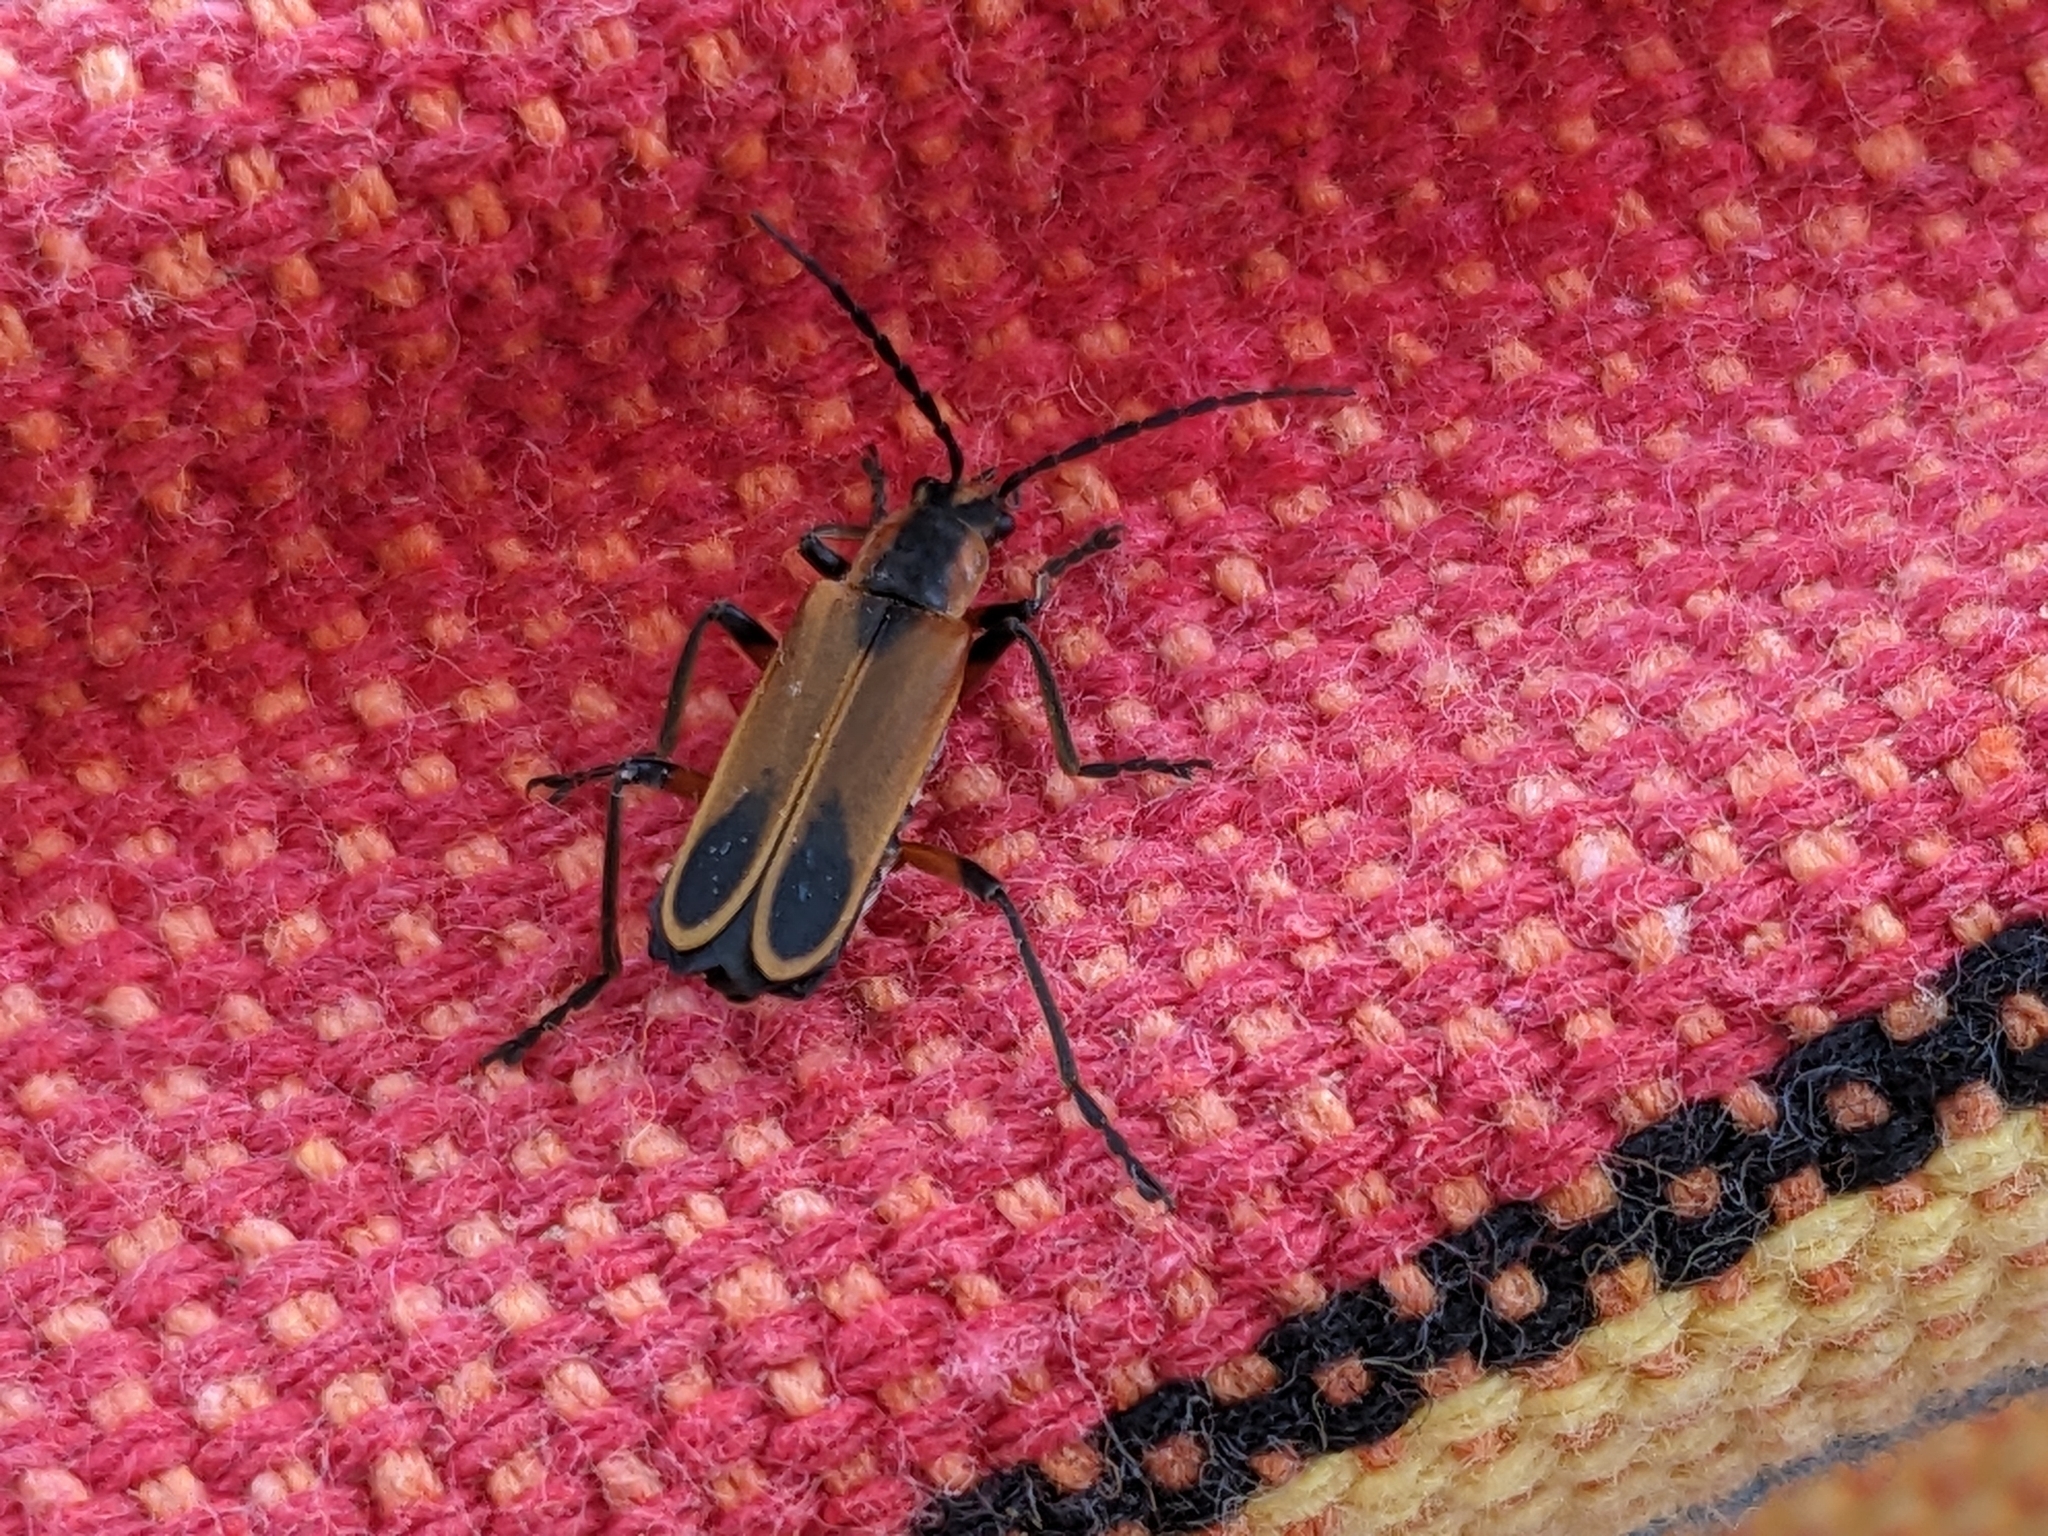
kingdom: Animalia
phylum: Arthropoda
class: Insecta
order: Coleoptera
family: Cantharidae
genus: Chauliognathus
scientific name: Chauliognathus marginatus
